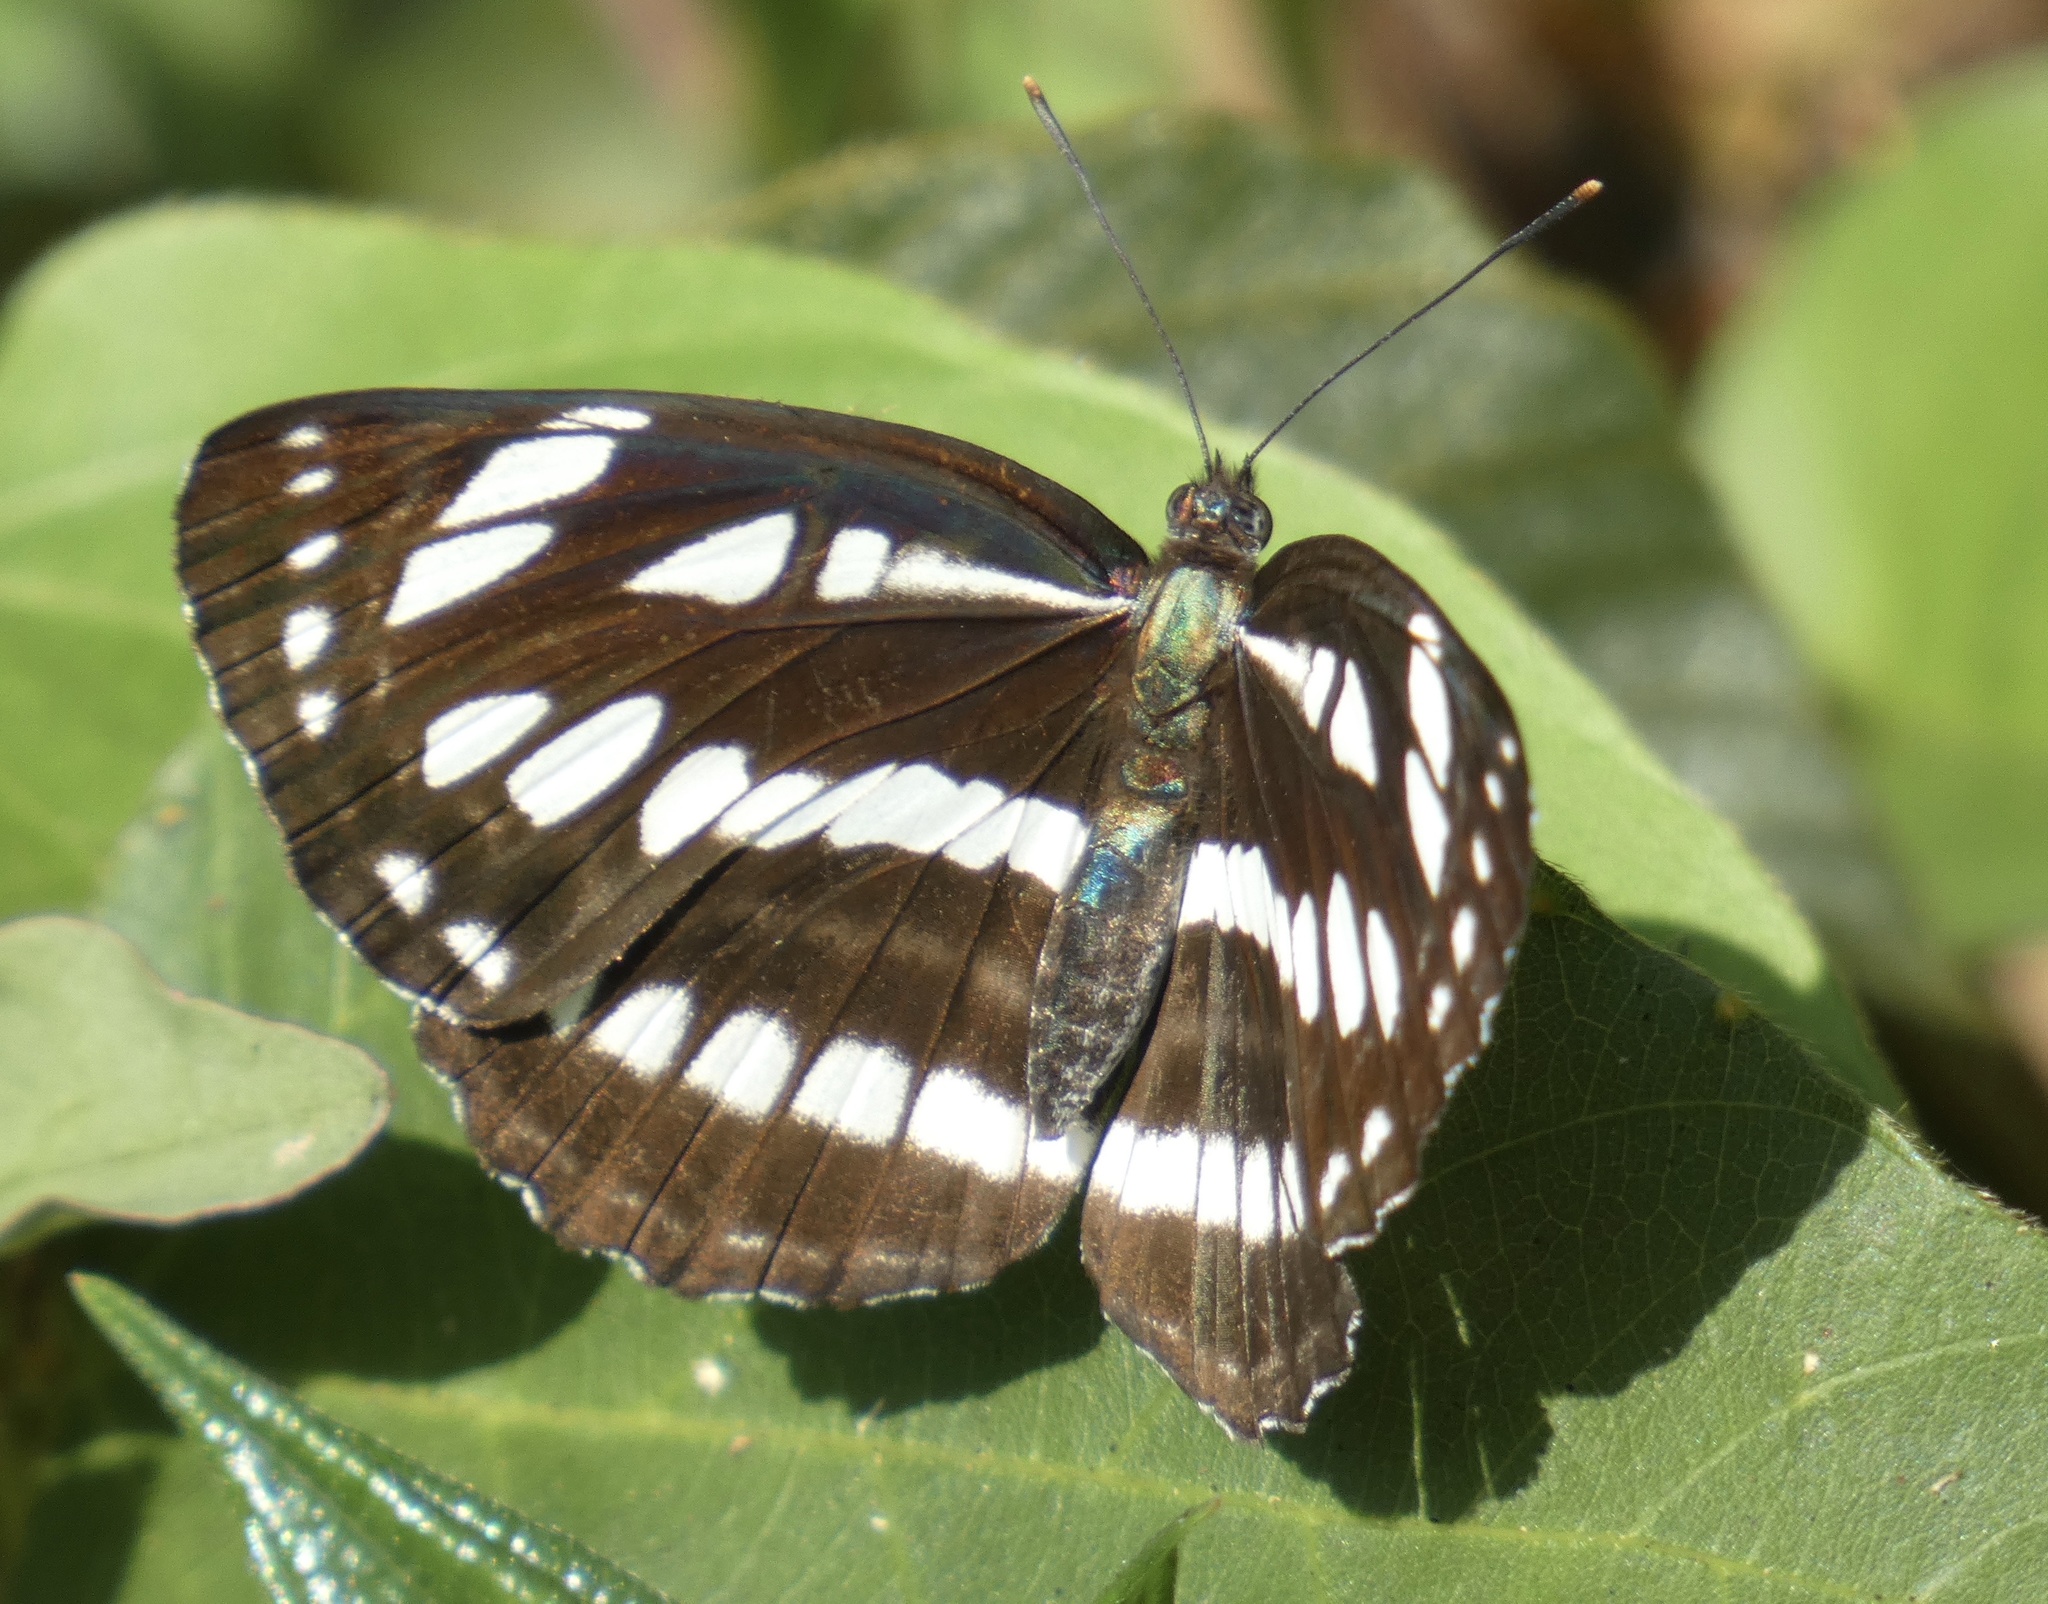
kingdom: Animalia
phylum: Arthropoda
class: Insecta
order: Lepidoptera
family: Nymphalidae
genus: Neptis
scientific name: Neptis hylas
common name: Common sailer
